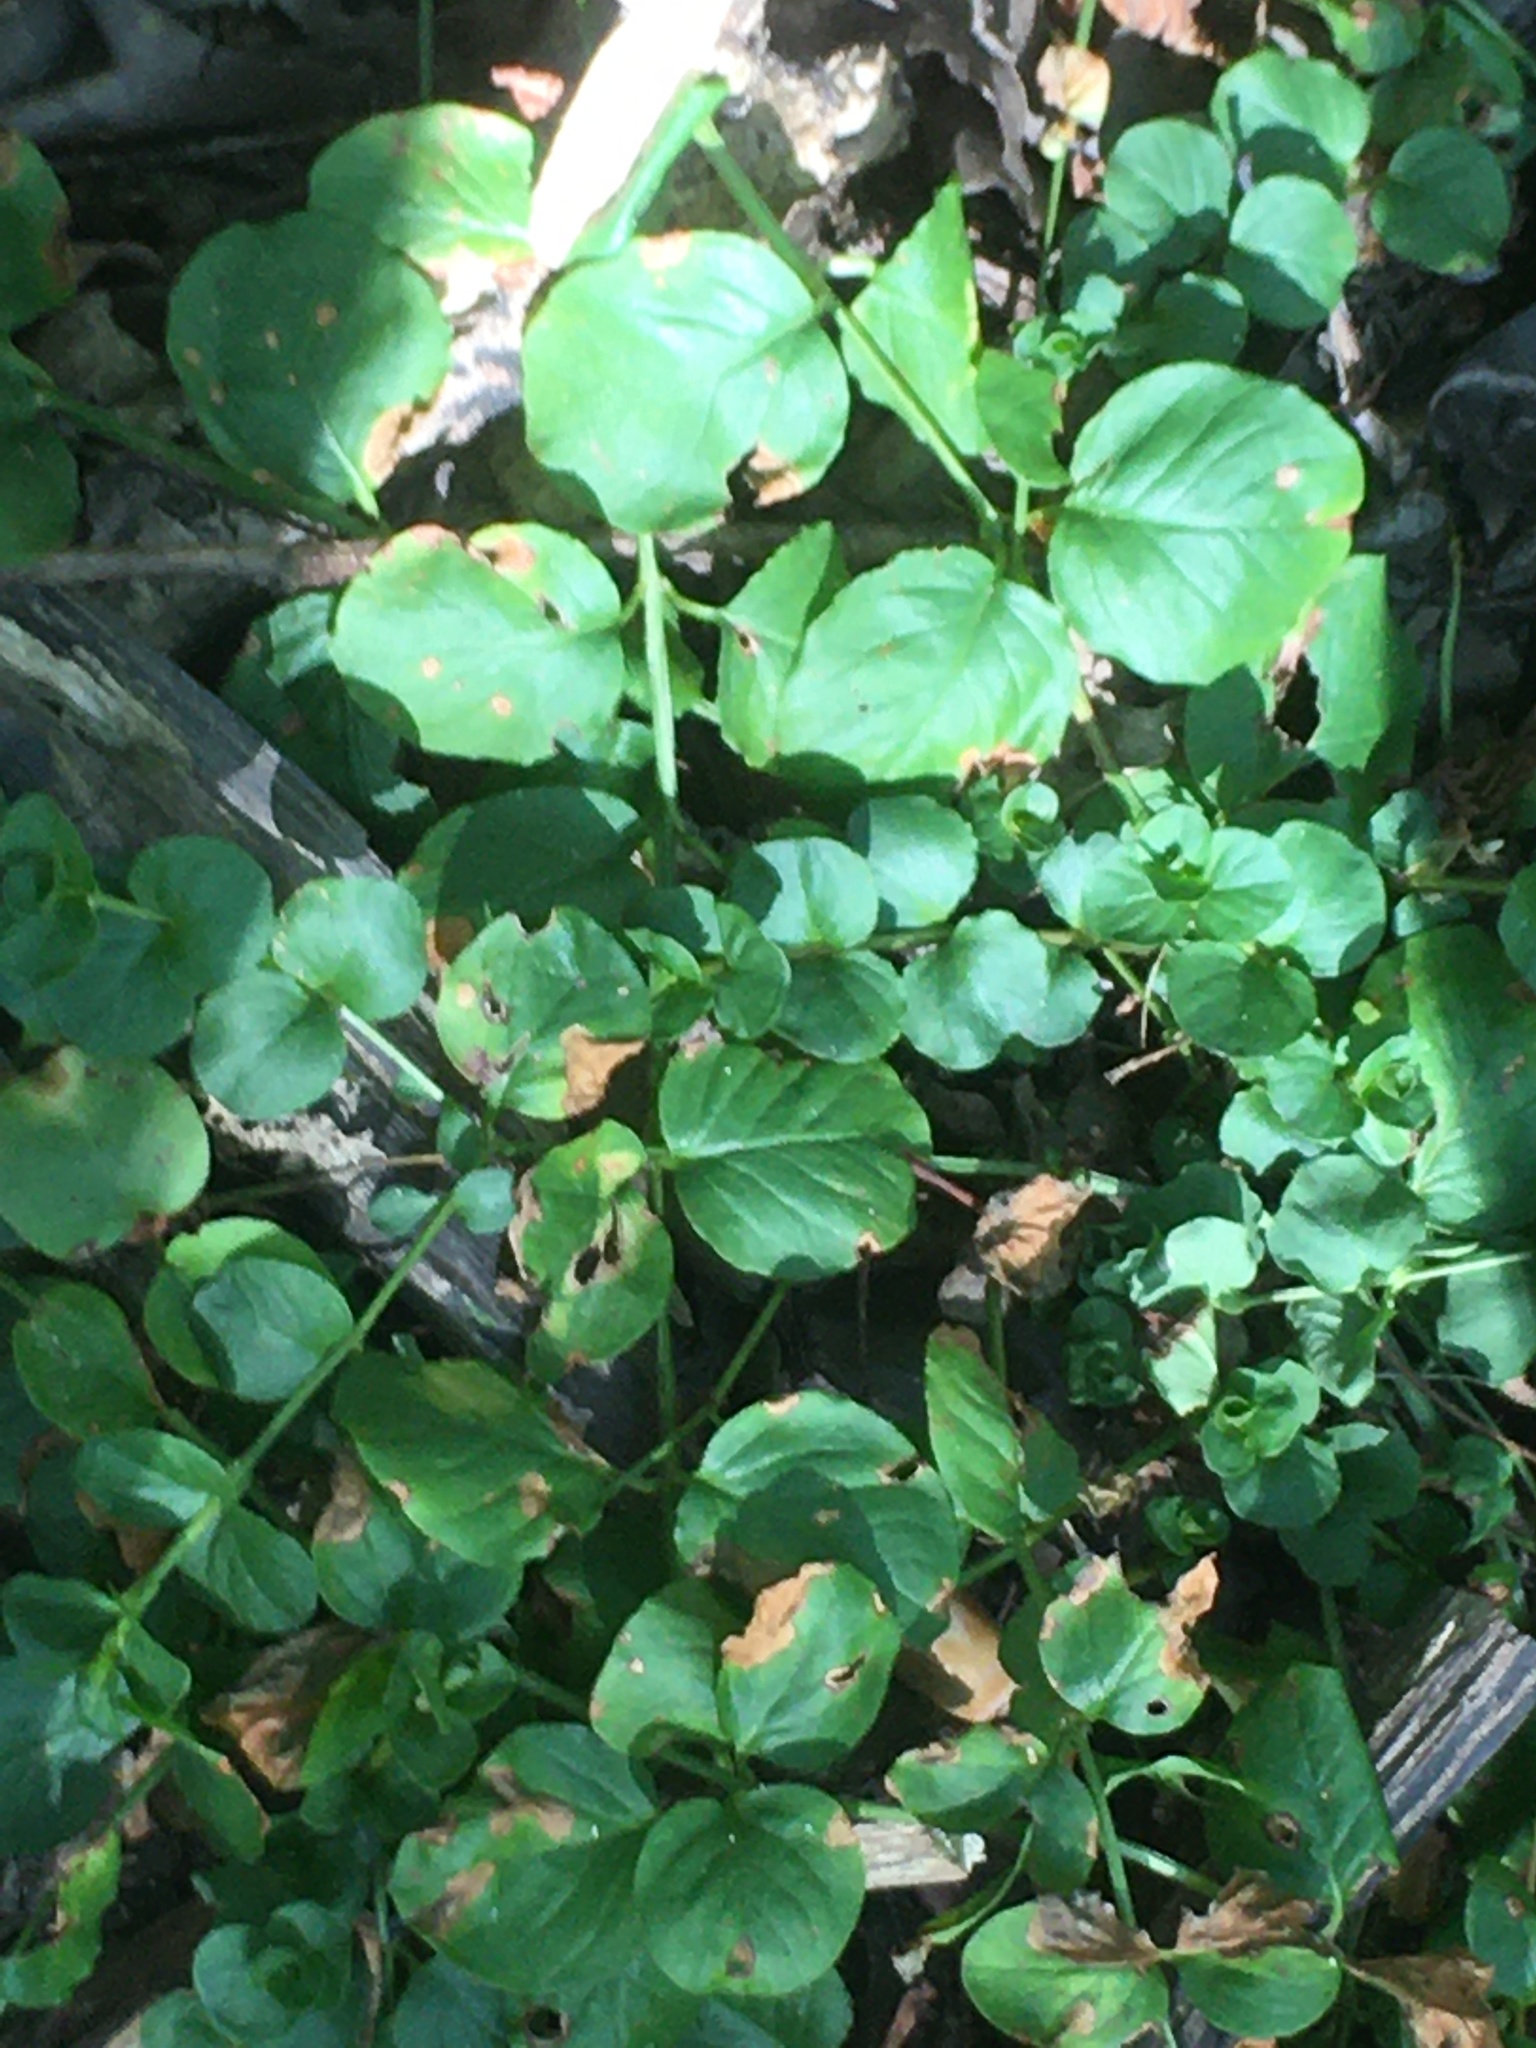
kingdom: Plantae
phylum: Tracheophyta
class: Magnoliopsida
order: Ericales
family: Primulaceae
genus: Lysimachia
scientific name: Lysimachia nummularia
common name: Moneywort
